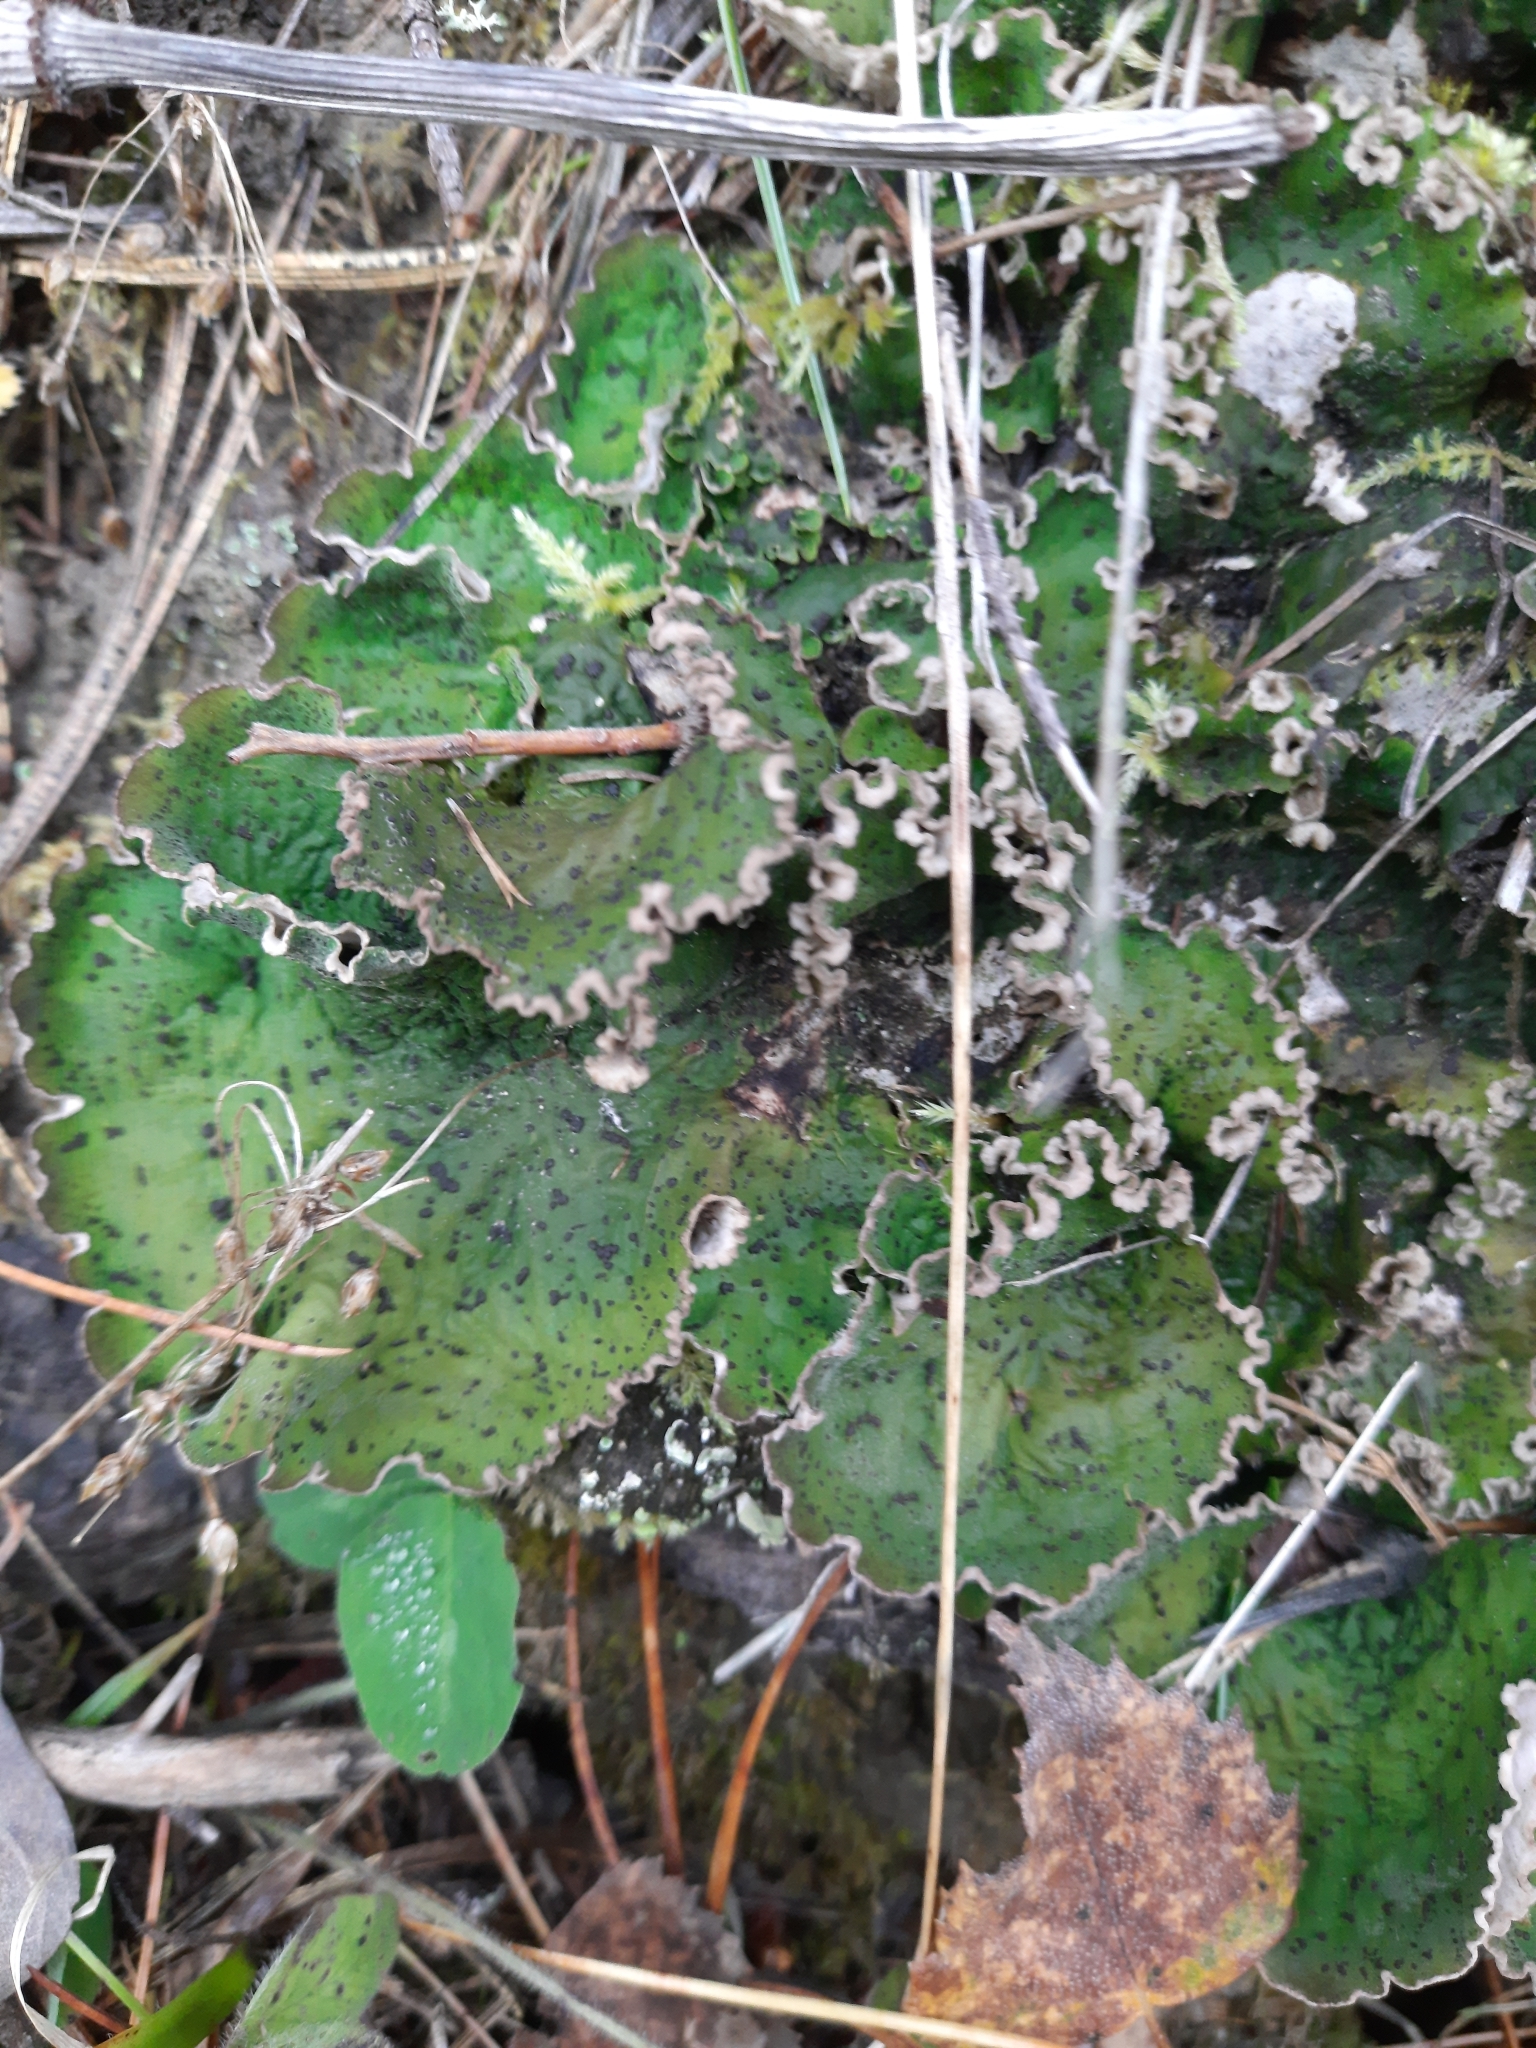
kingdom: Fungi
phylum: Ascomycota
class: Lecanoromycetes
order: Peltigerales
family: Peltigeraceae
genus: Peltigera
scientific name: Peltigera aphthosa
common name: Common freckle pelt lichen
